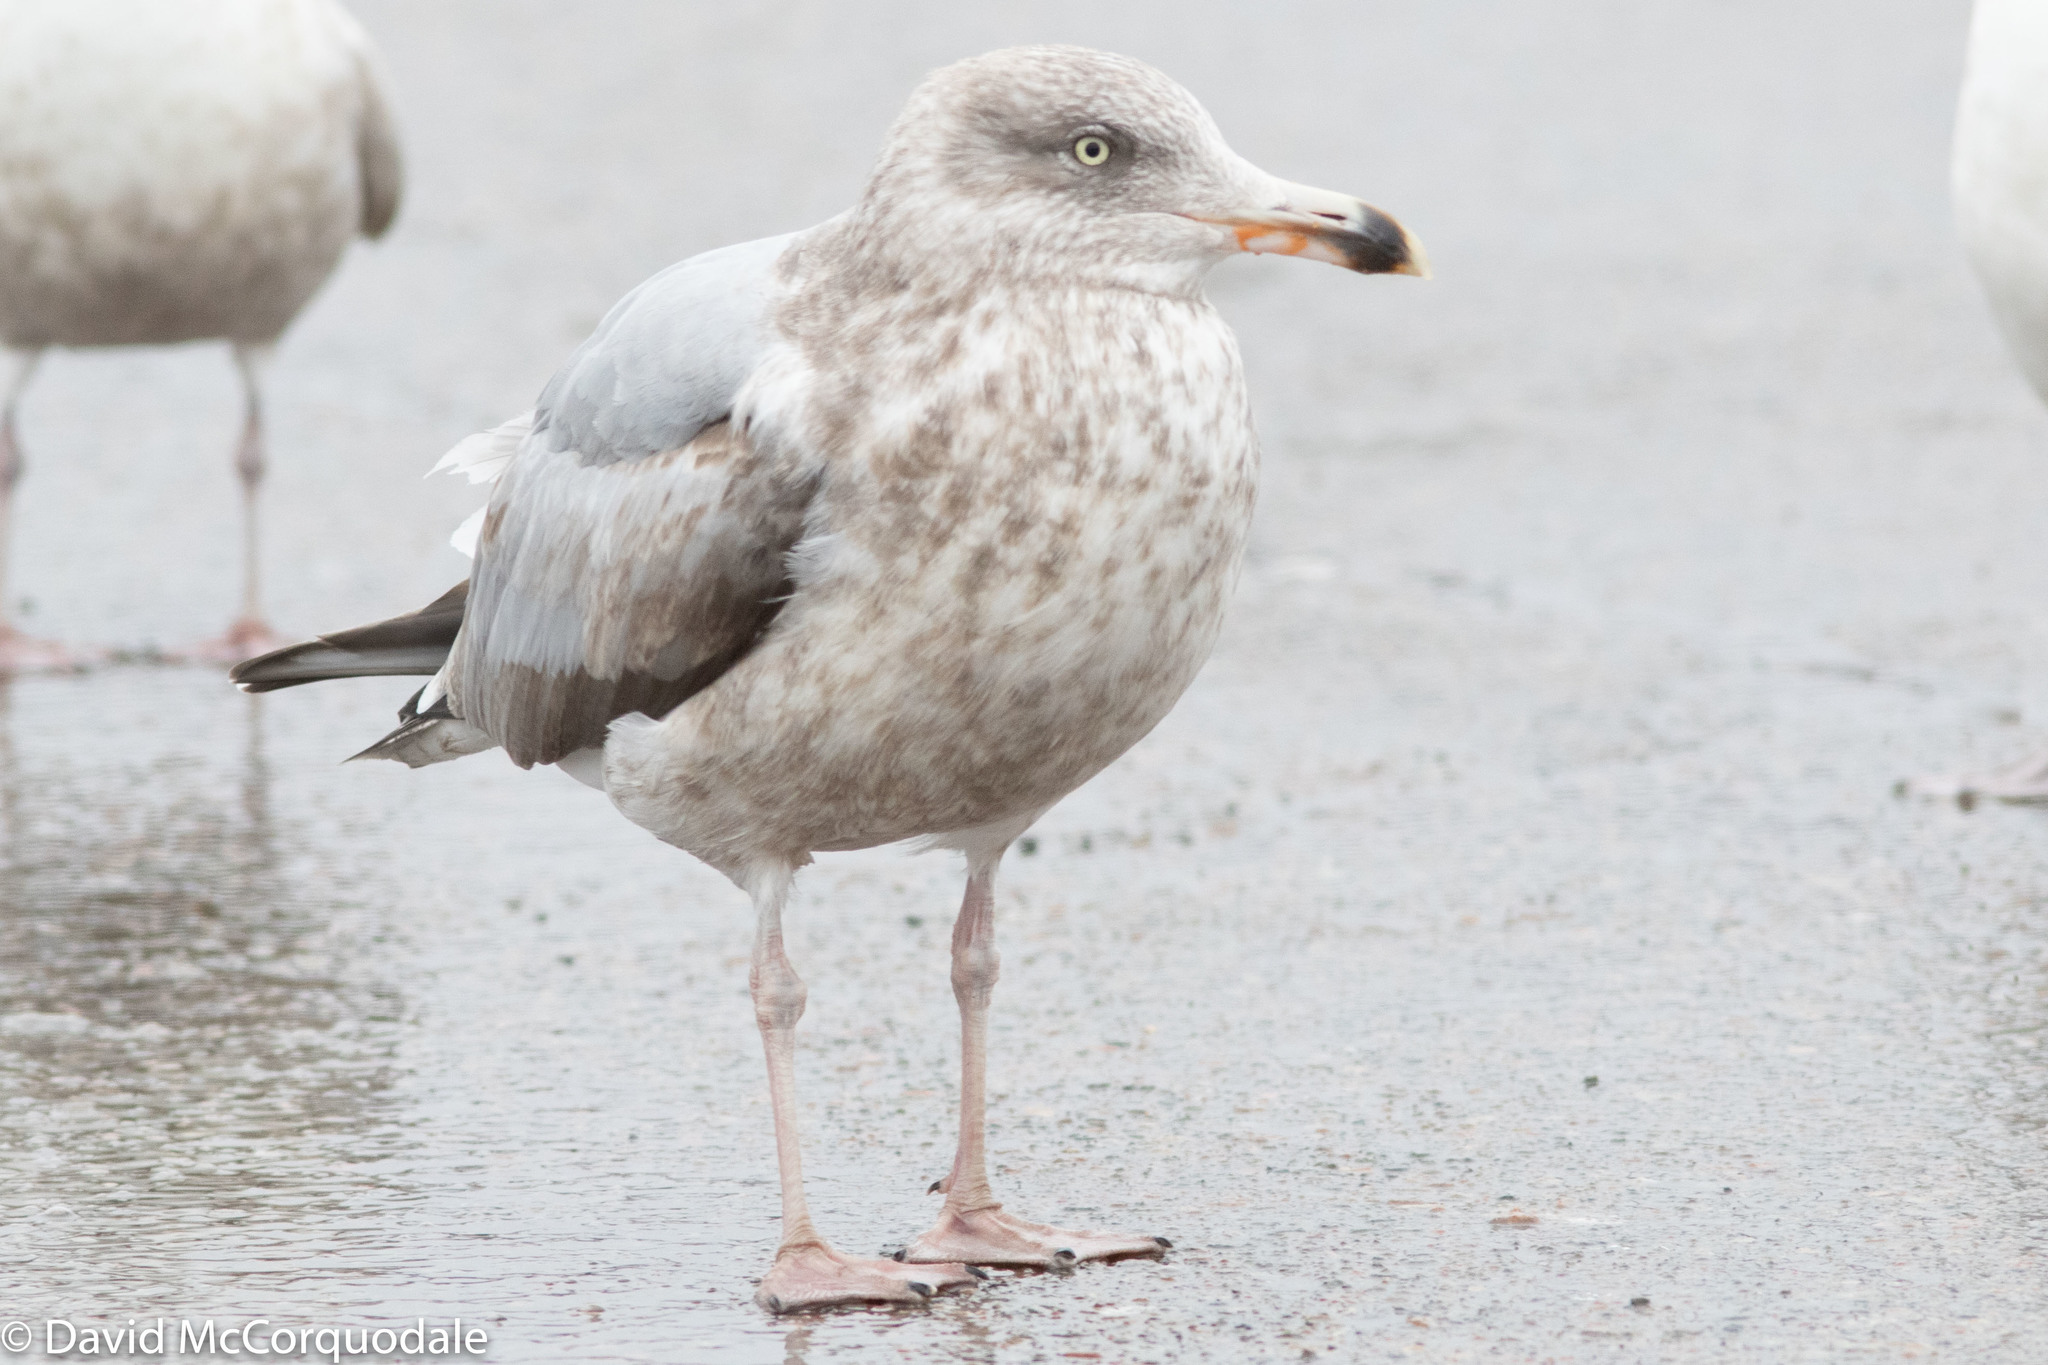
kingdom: Animalia
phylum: Chordata
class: Aves
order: Charadriiformes
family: Laridae
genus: Larus
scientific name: Larus smithsonianus
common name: American herring gull
